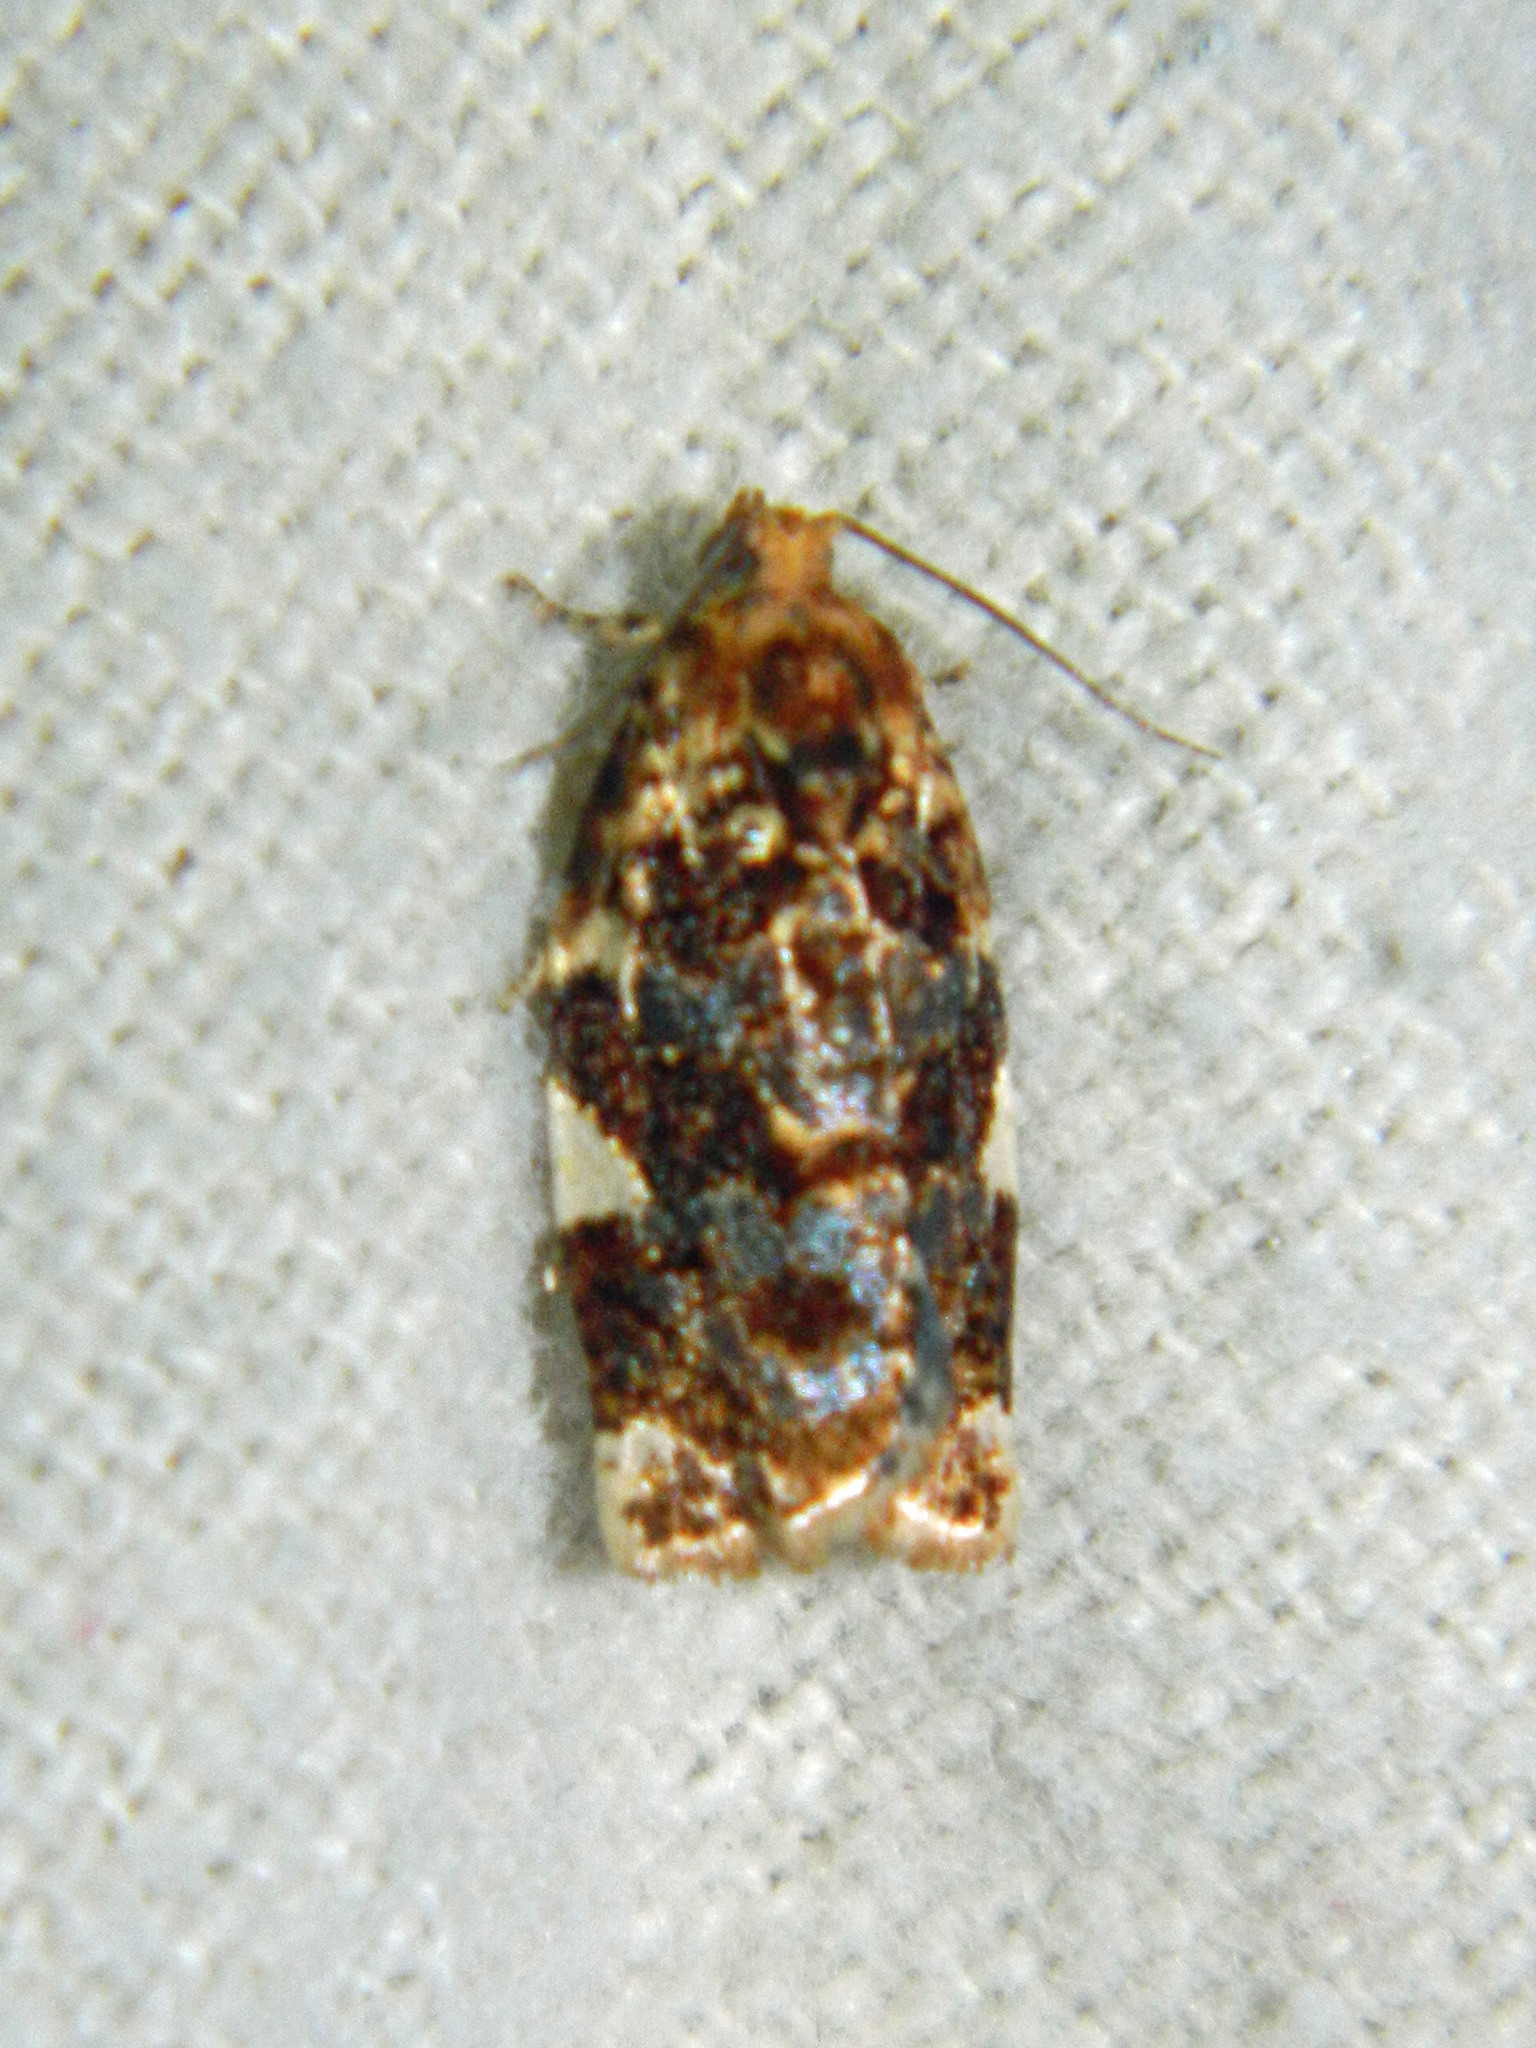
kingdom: Animalia
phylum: Arthropoda
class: Insecta
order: Lepidoptera
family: Tortricidae
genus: Archips
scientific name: Archips argyrospila
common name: Fruit-tree leafroller moth
